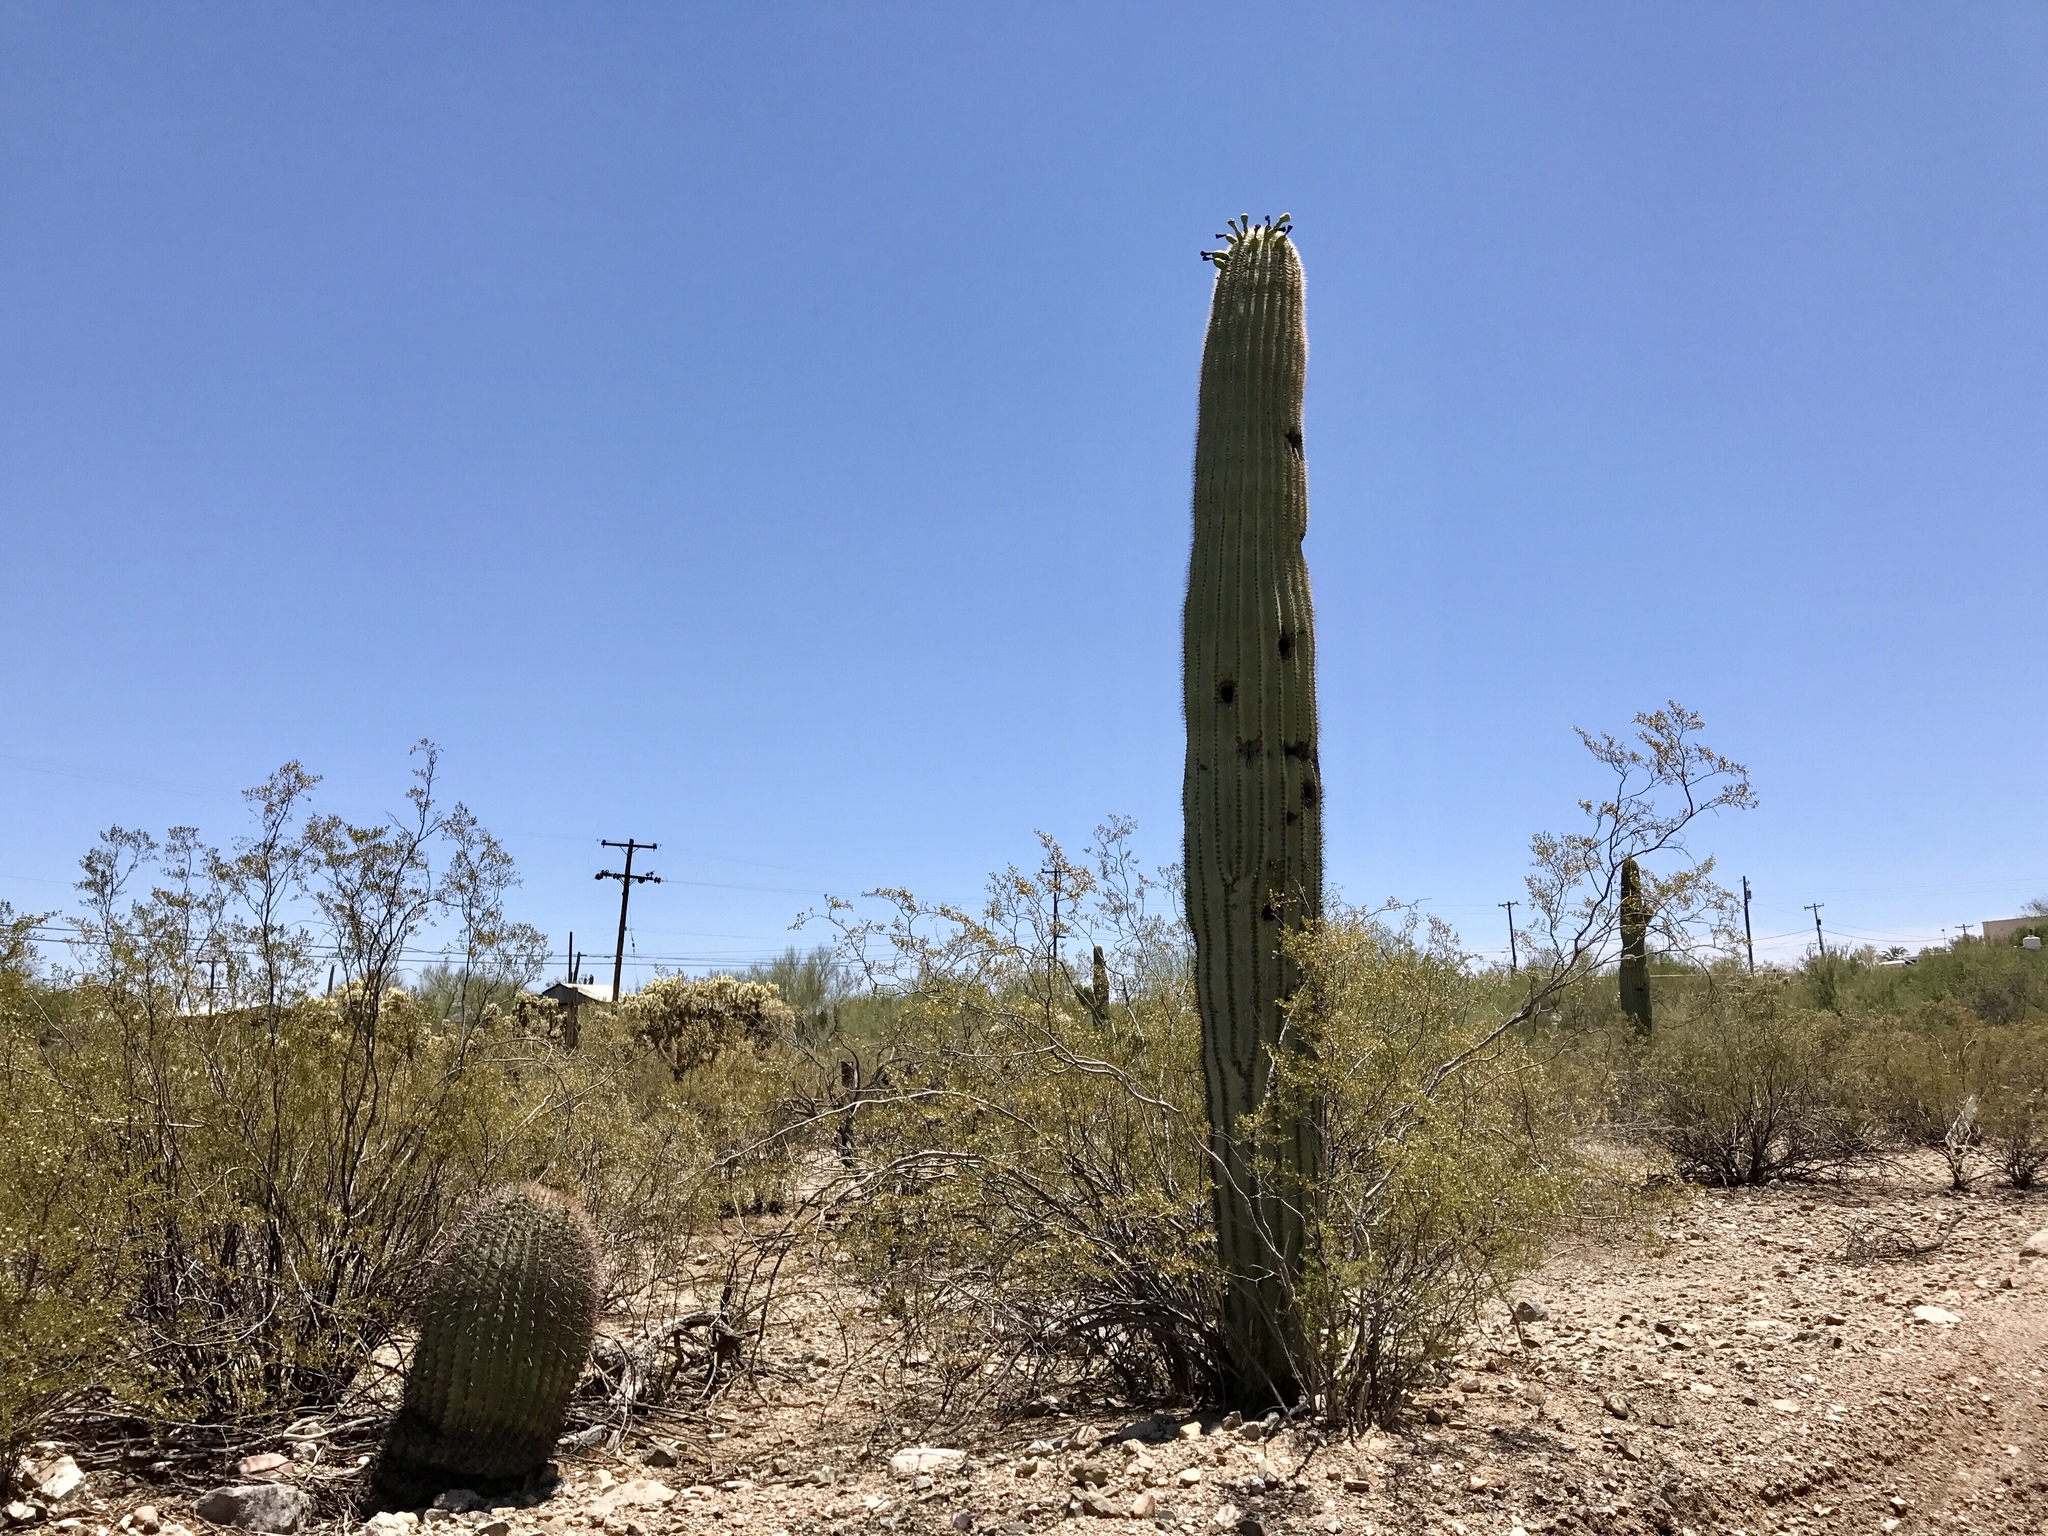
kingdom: Plantae
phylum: Tracheophyta
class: Magnoliopsida
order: Caryophyllales
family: Cactaceae
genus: Carnegiea
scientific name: Carnegiea gigantea
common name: Saguaro
